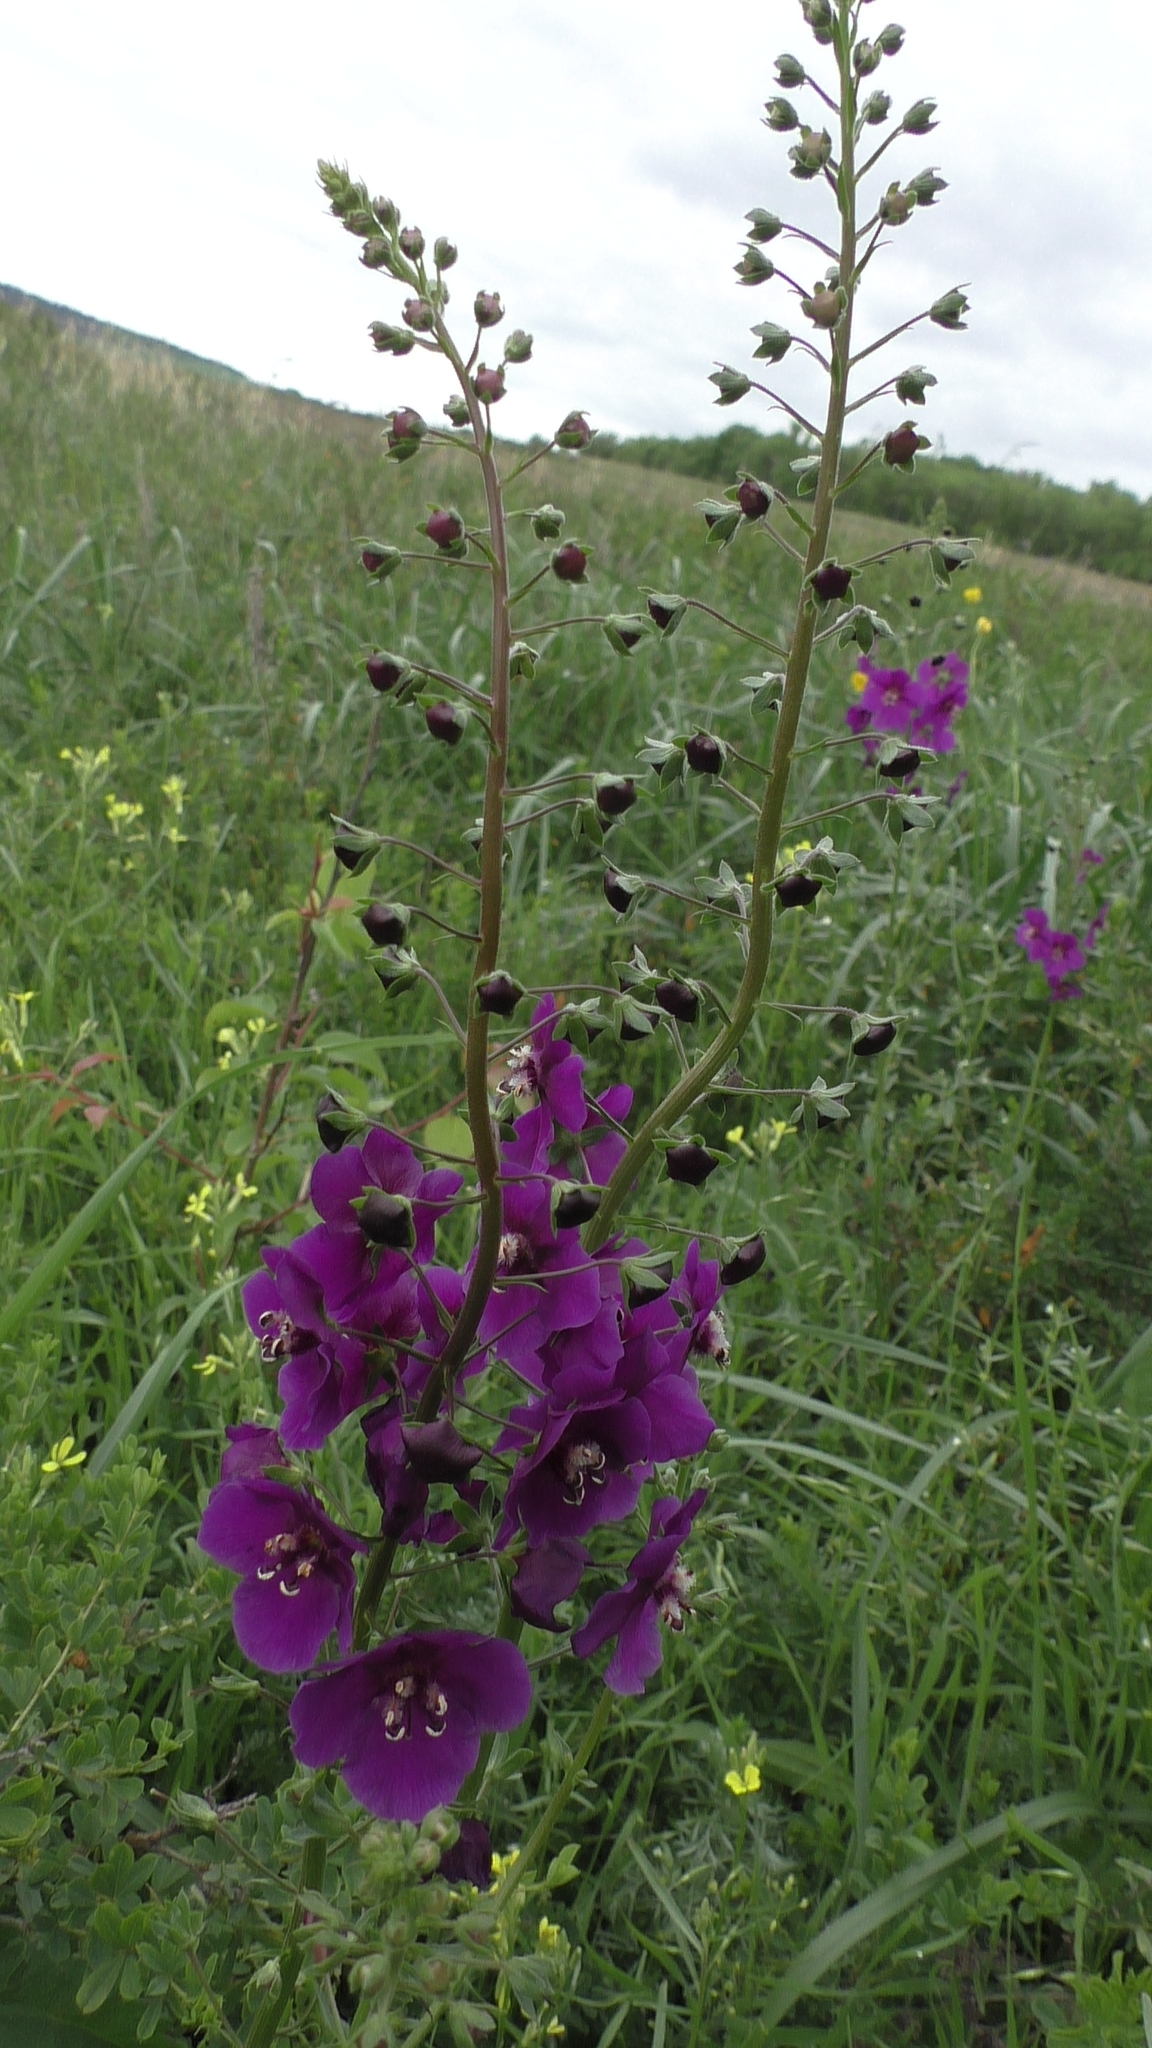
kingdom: Plantae
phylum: Tracheophyta
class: Magnoliopsida
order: Lamiales
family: Scrophulariaceae
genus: Verbascum
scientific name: Verbascum phoeniceum
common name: Purple mullein
